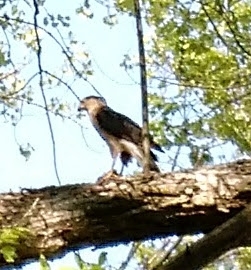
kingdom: Animalia
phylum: Chordata
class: Aves
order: Accipitriformes
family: Accipitridae
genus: Accipiter
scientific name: Accipiter cooperii
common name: Cooper's hawk
